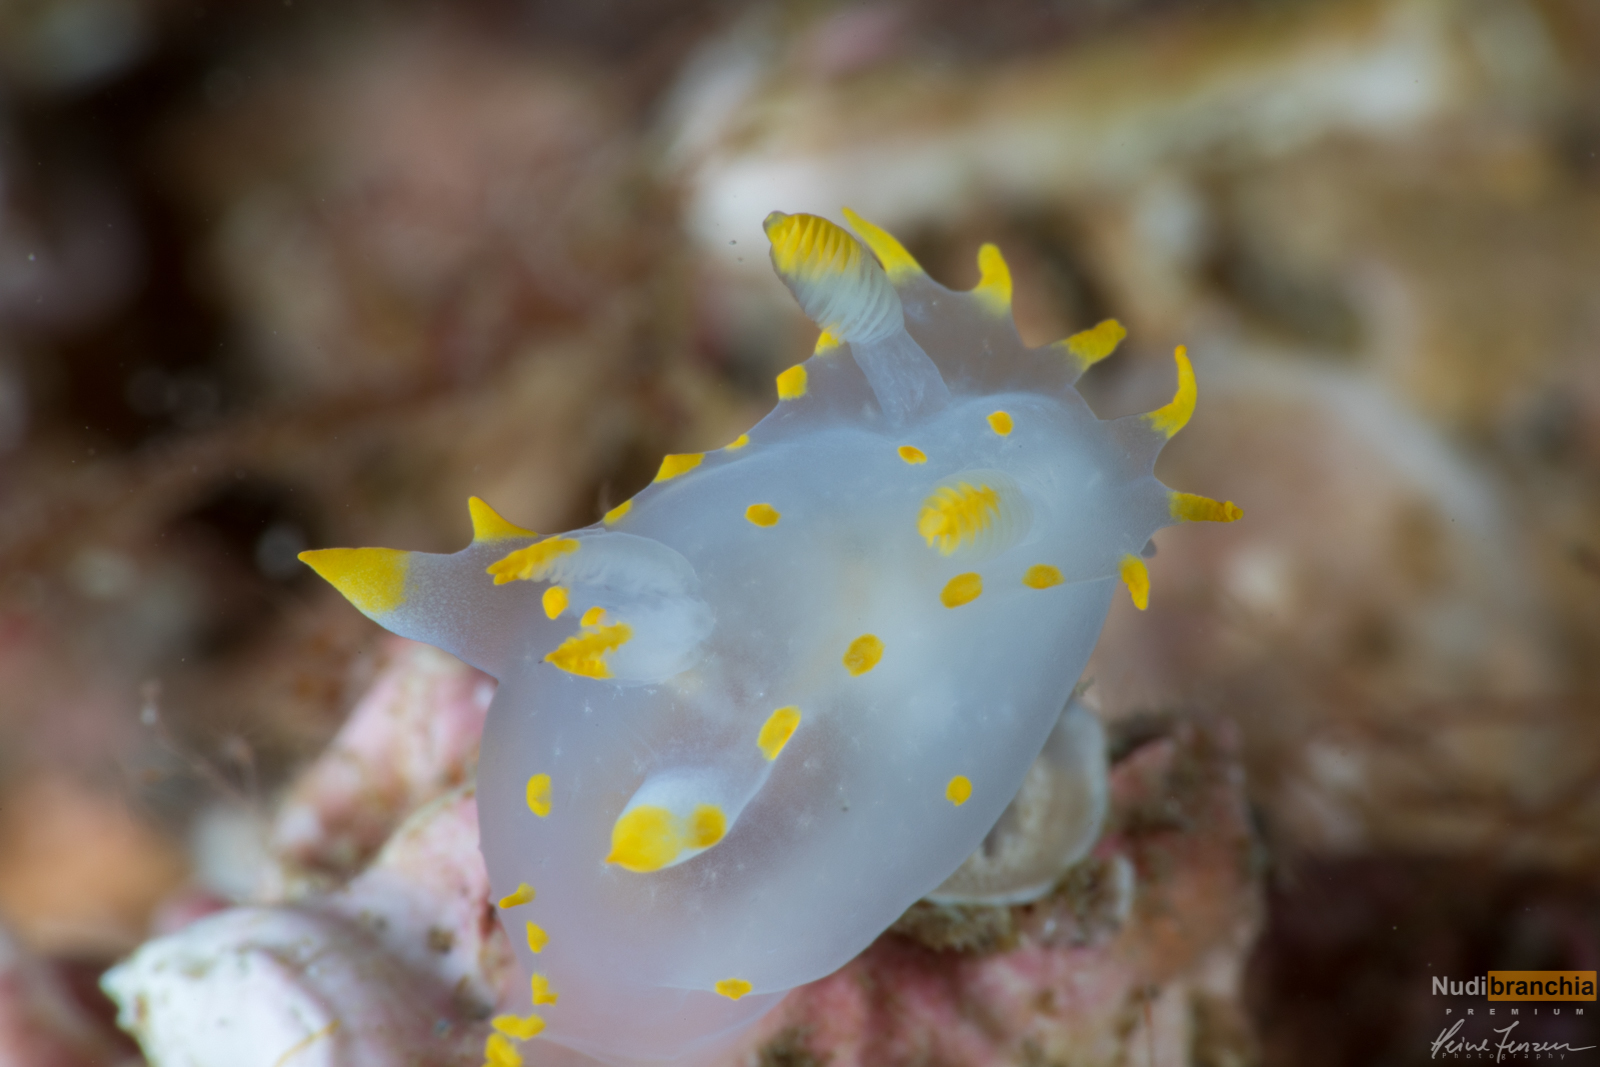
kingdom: Animalia
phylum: Mollusca
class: Gastropoda
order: Nudibranchia
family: Polyceridae
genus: Polycera
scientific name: Polycera quadrilineata
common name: Four-striped polycera
